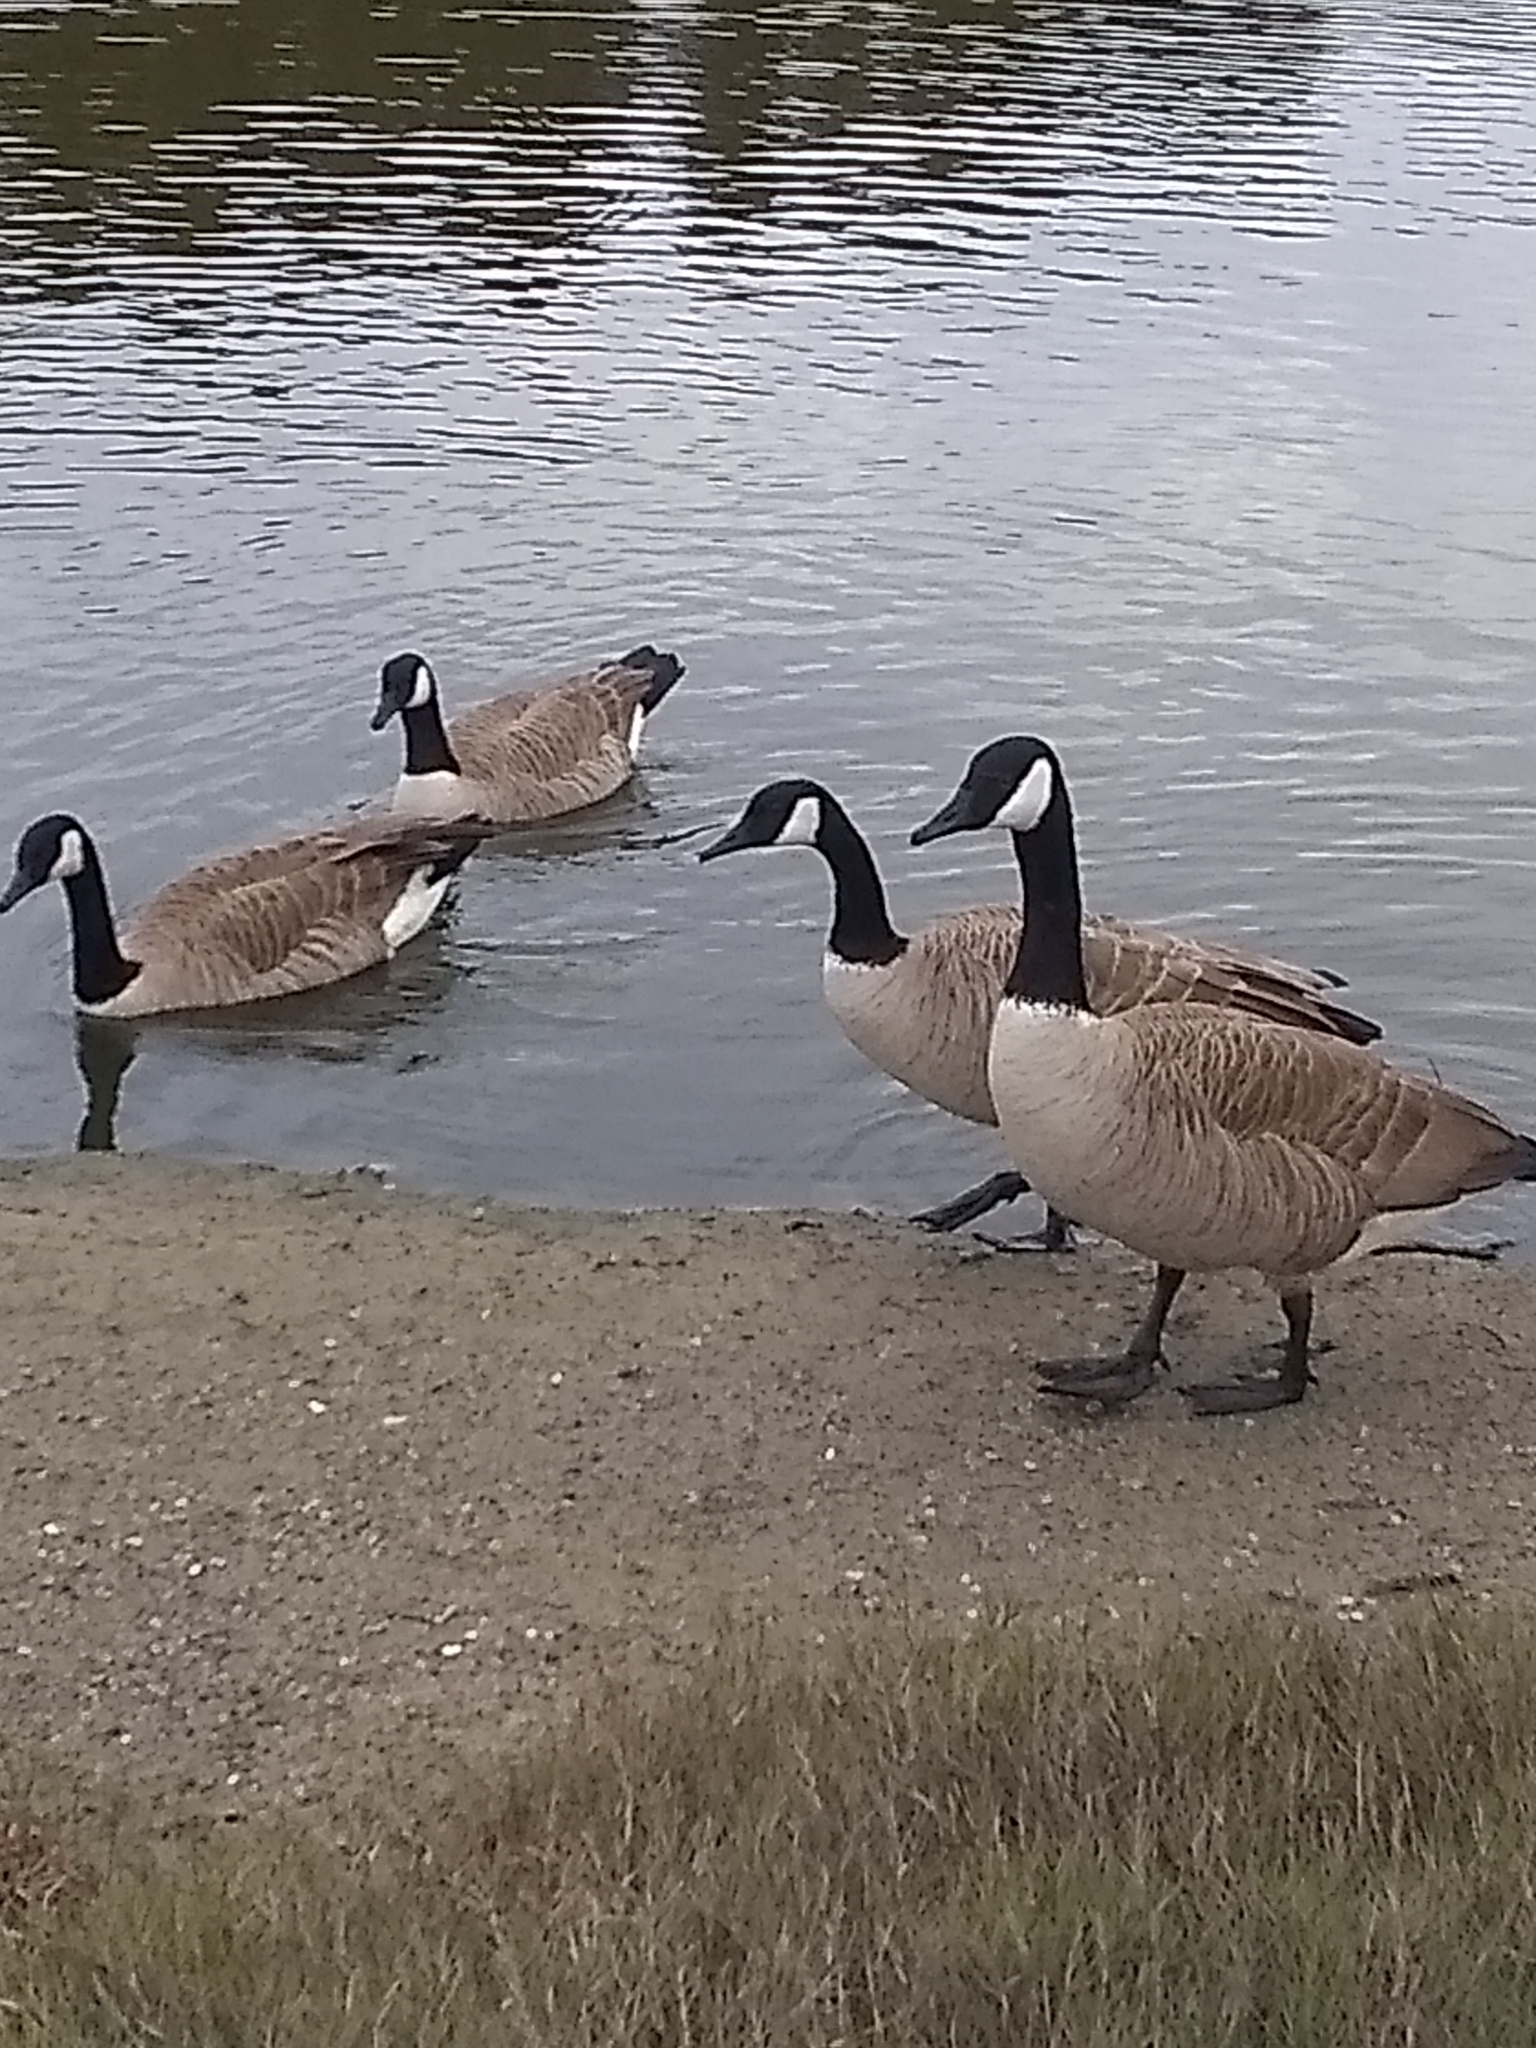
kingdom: Animalia
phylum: Chordata
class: Aves
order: Anseriformes
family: Anatidae
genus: Branta
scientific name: Branta canadensis
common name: Canada goose
